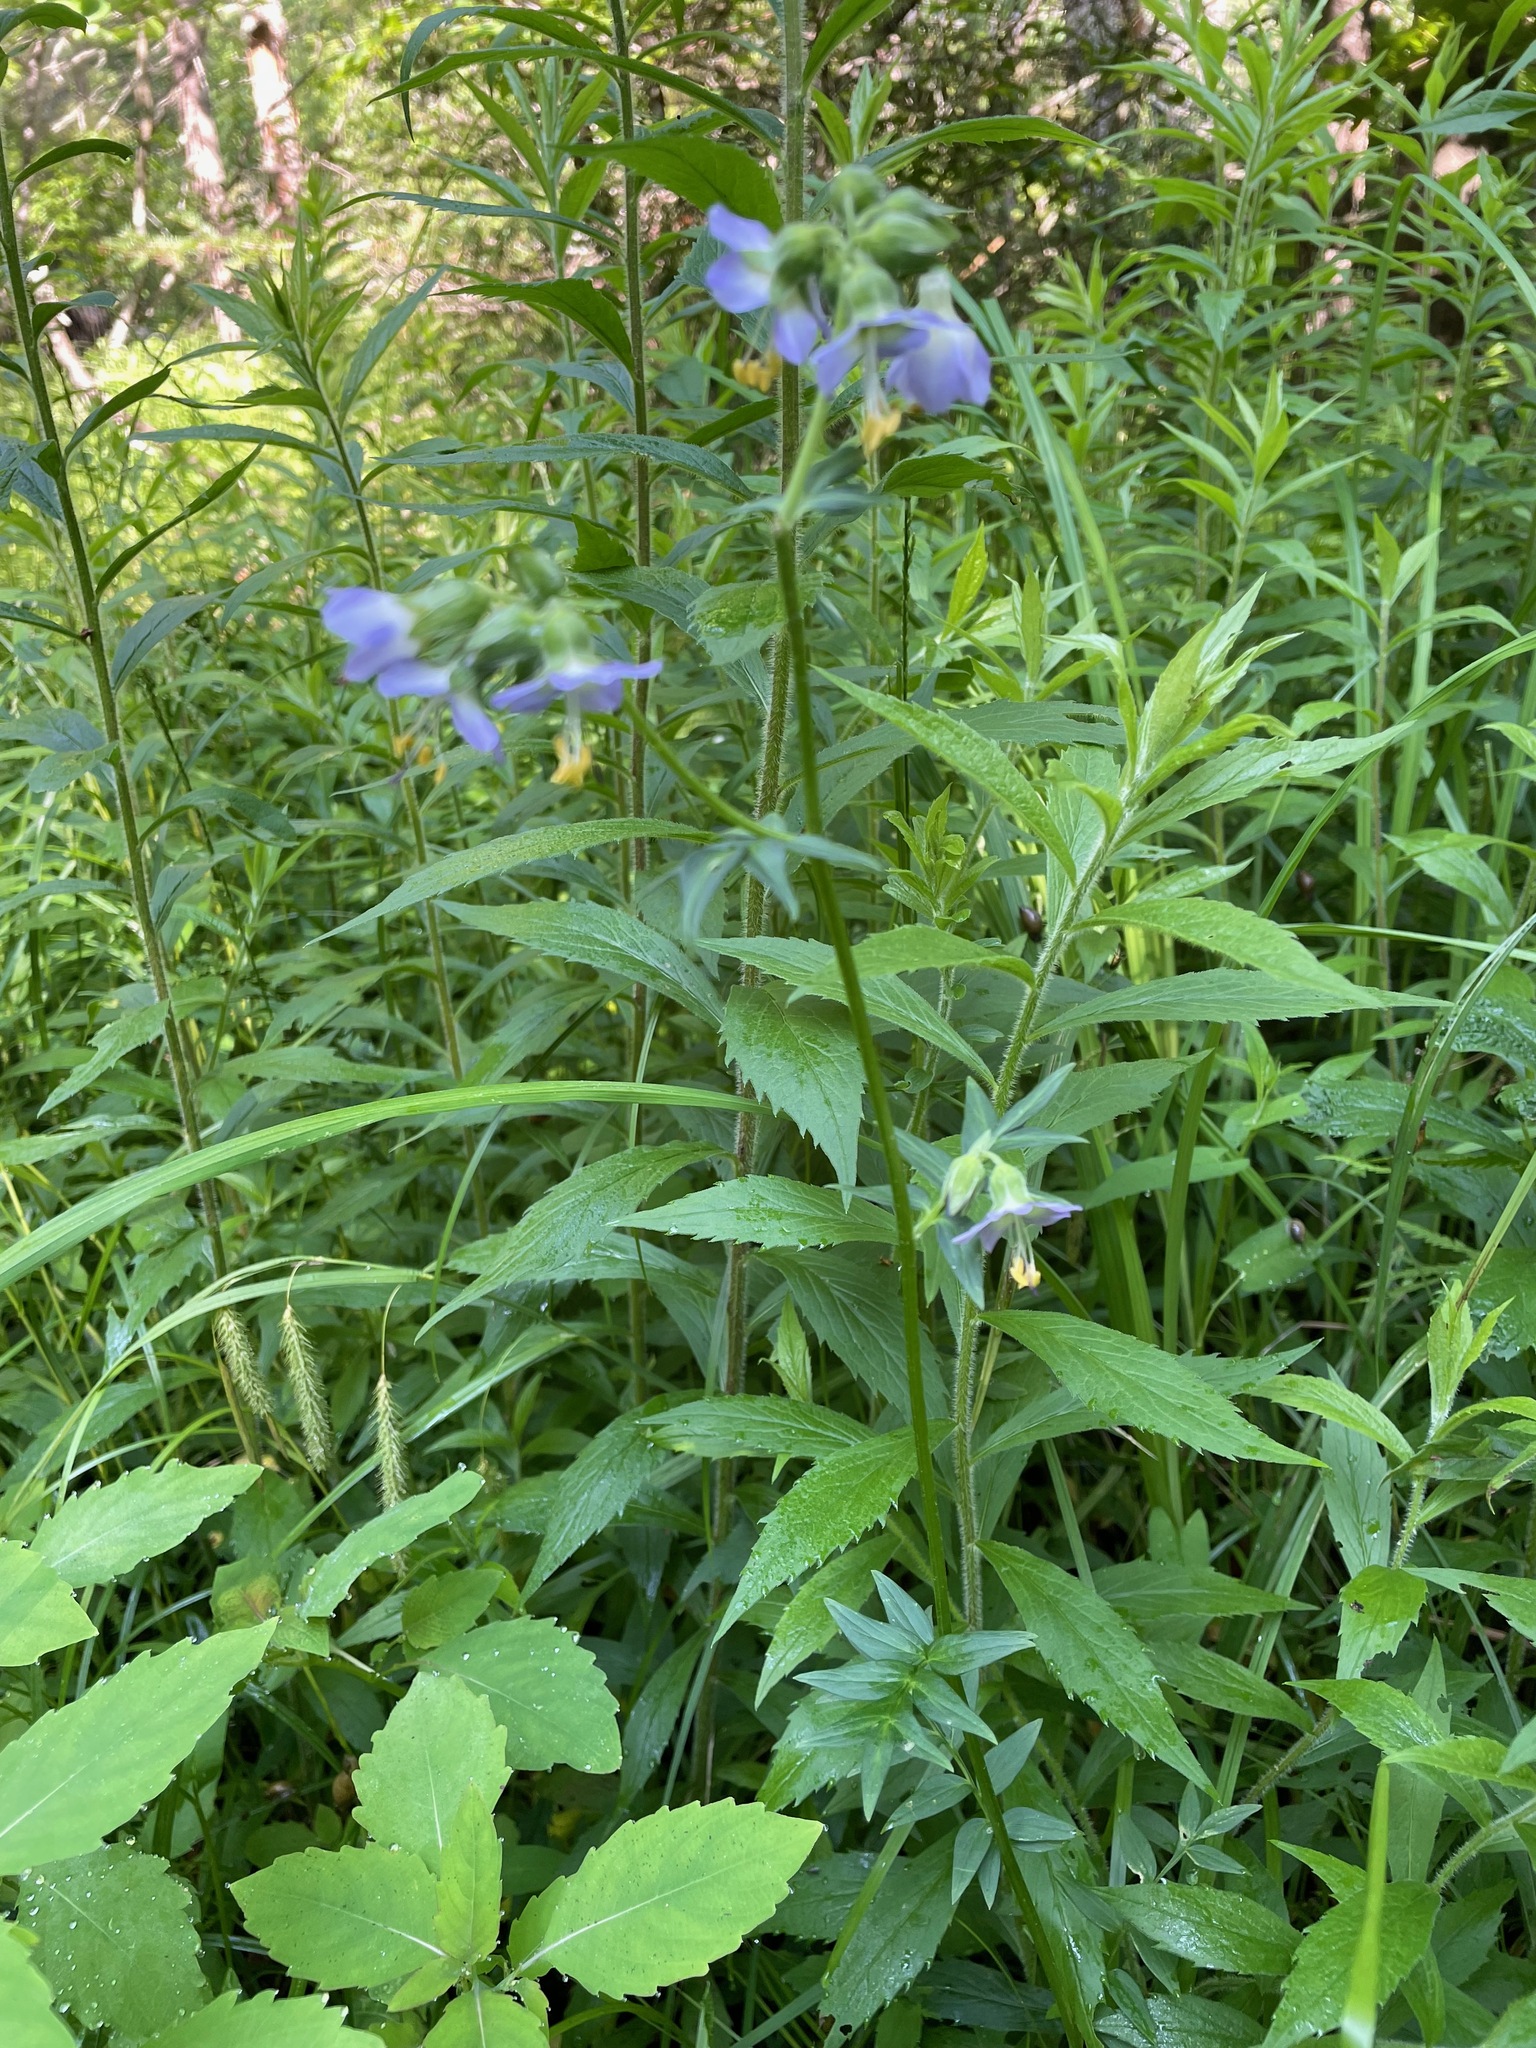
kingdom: Plantae
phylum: Tracheophyta
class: Magnoliopsida
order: Ericales
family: Polemoniaceae
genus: Polemonium
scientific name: Polemonium vanbruntiae
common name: Bog jacob's-ladder
